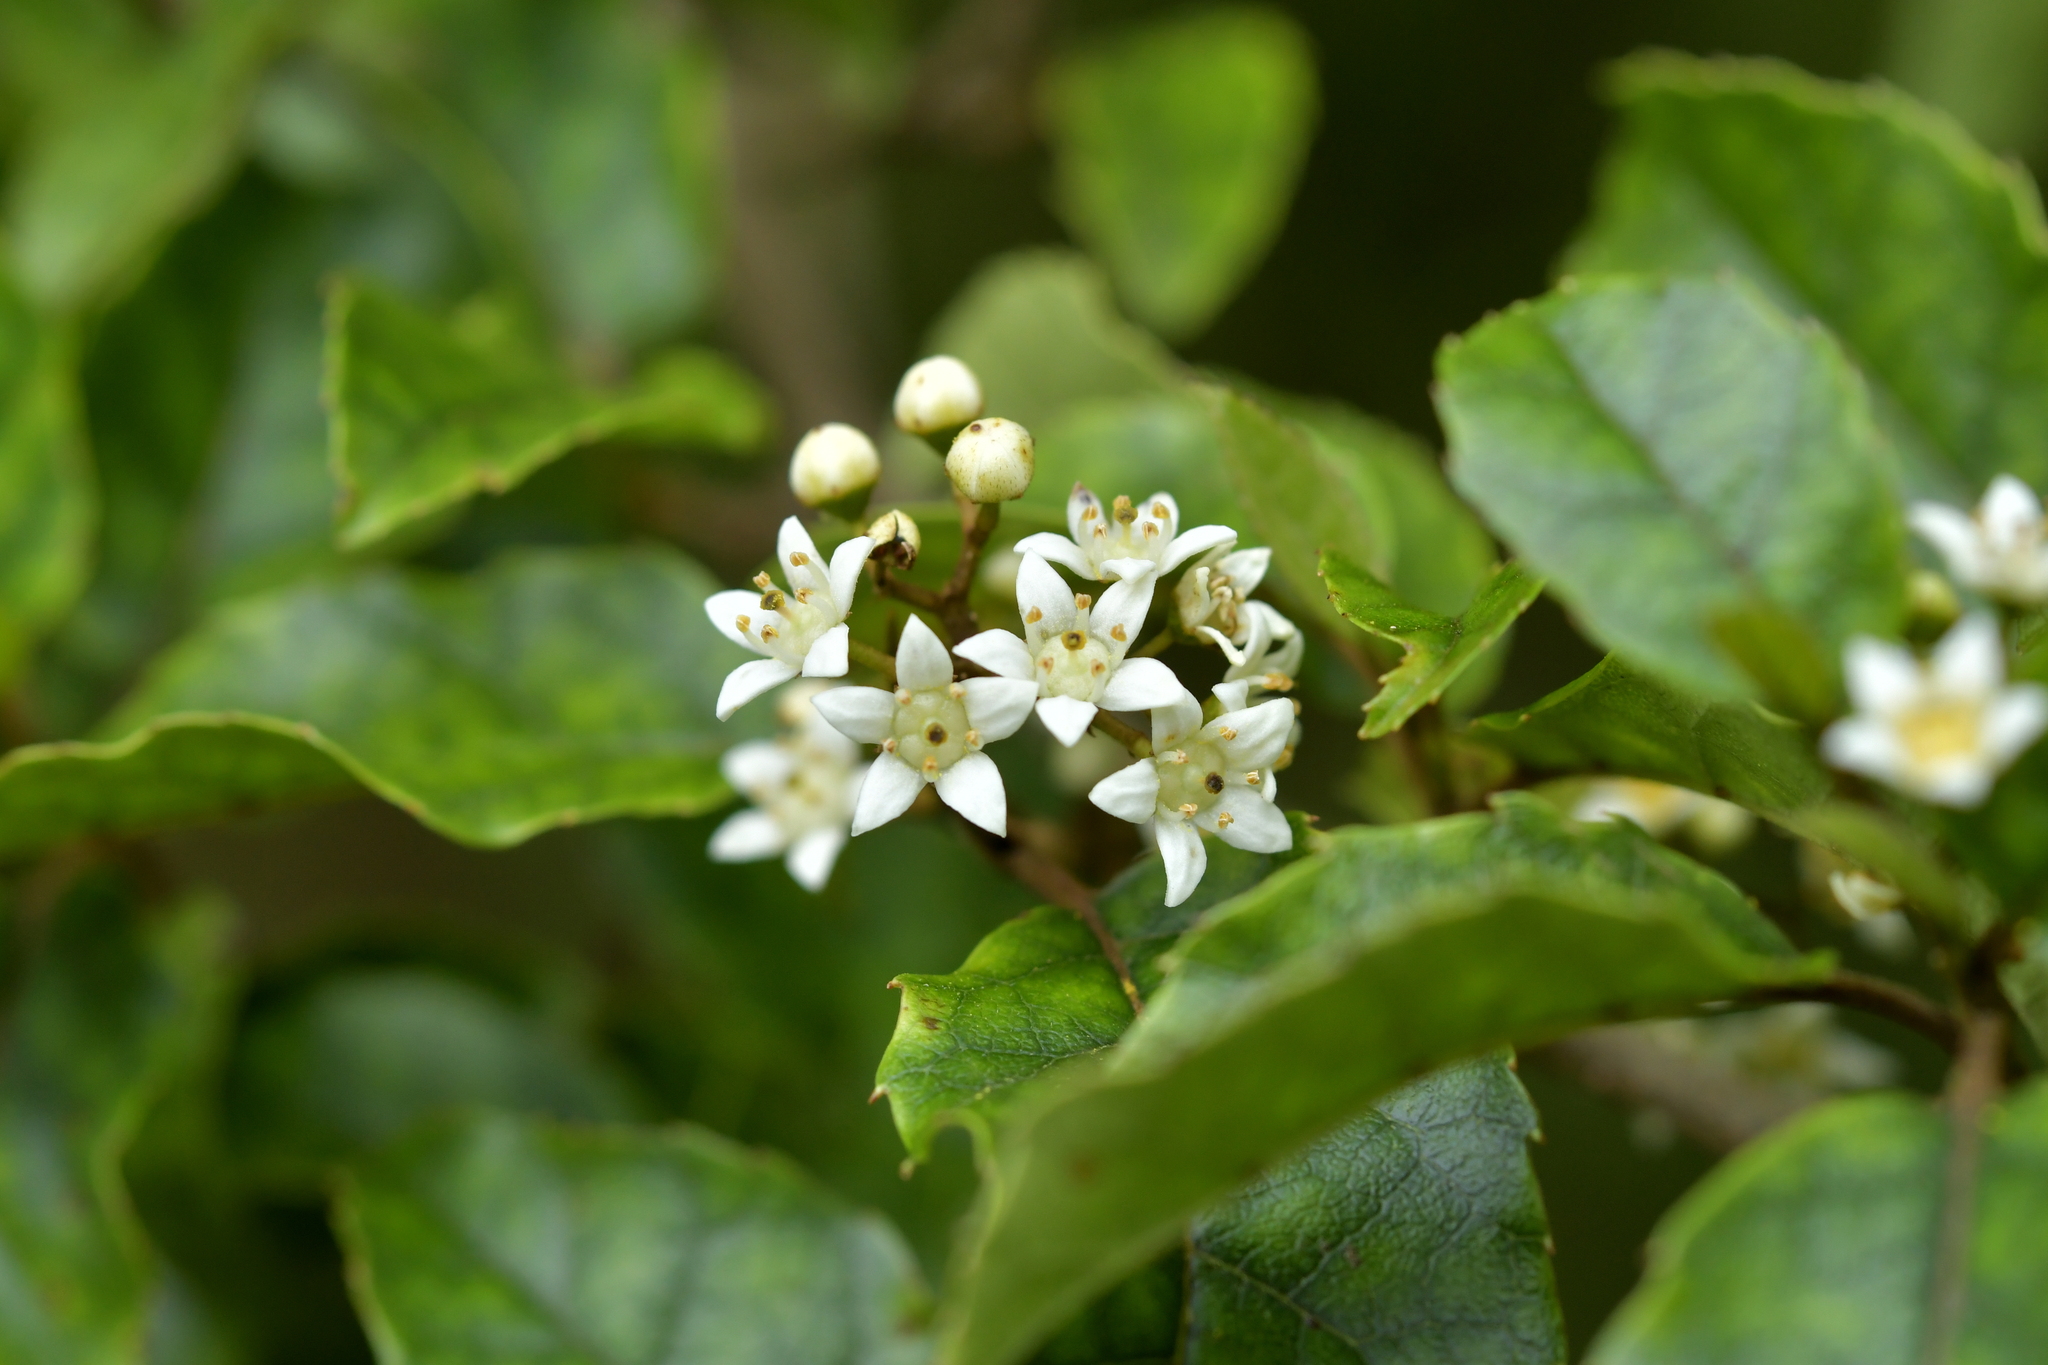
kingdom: Plantae
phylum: Tracheophyta
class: Magnoliopsida
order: Asterales
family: Rousseaceae
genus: Carpodetus
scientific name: Carpodetus serratus
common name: White mapau
